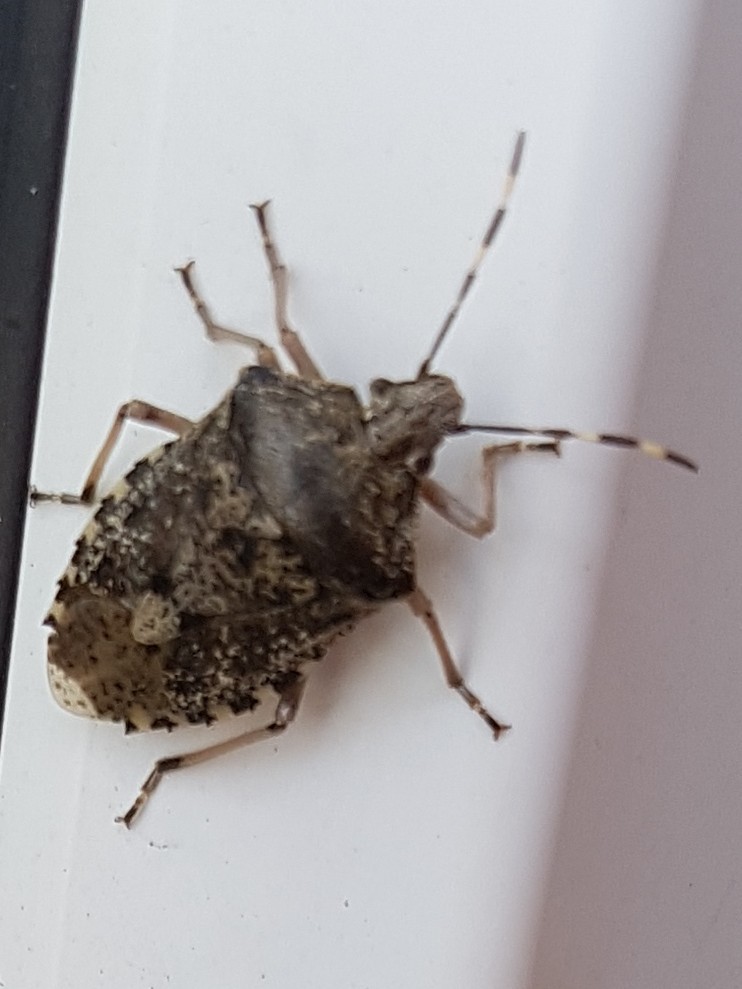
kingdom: Animalia
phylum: Arthropoda
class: Insecta
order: Hemiptera
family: Pentatomidae
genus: Rhaphigaster
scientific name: Rhaphigaster nebulosa
